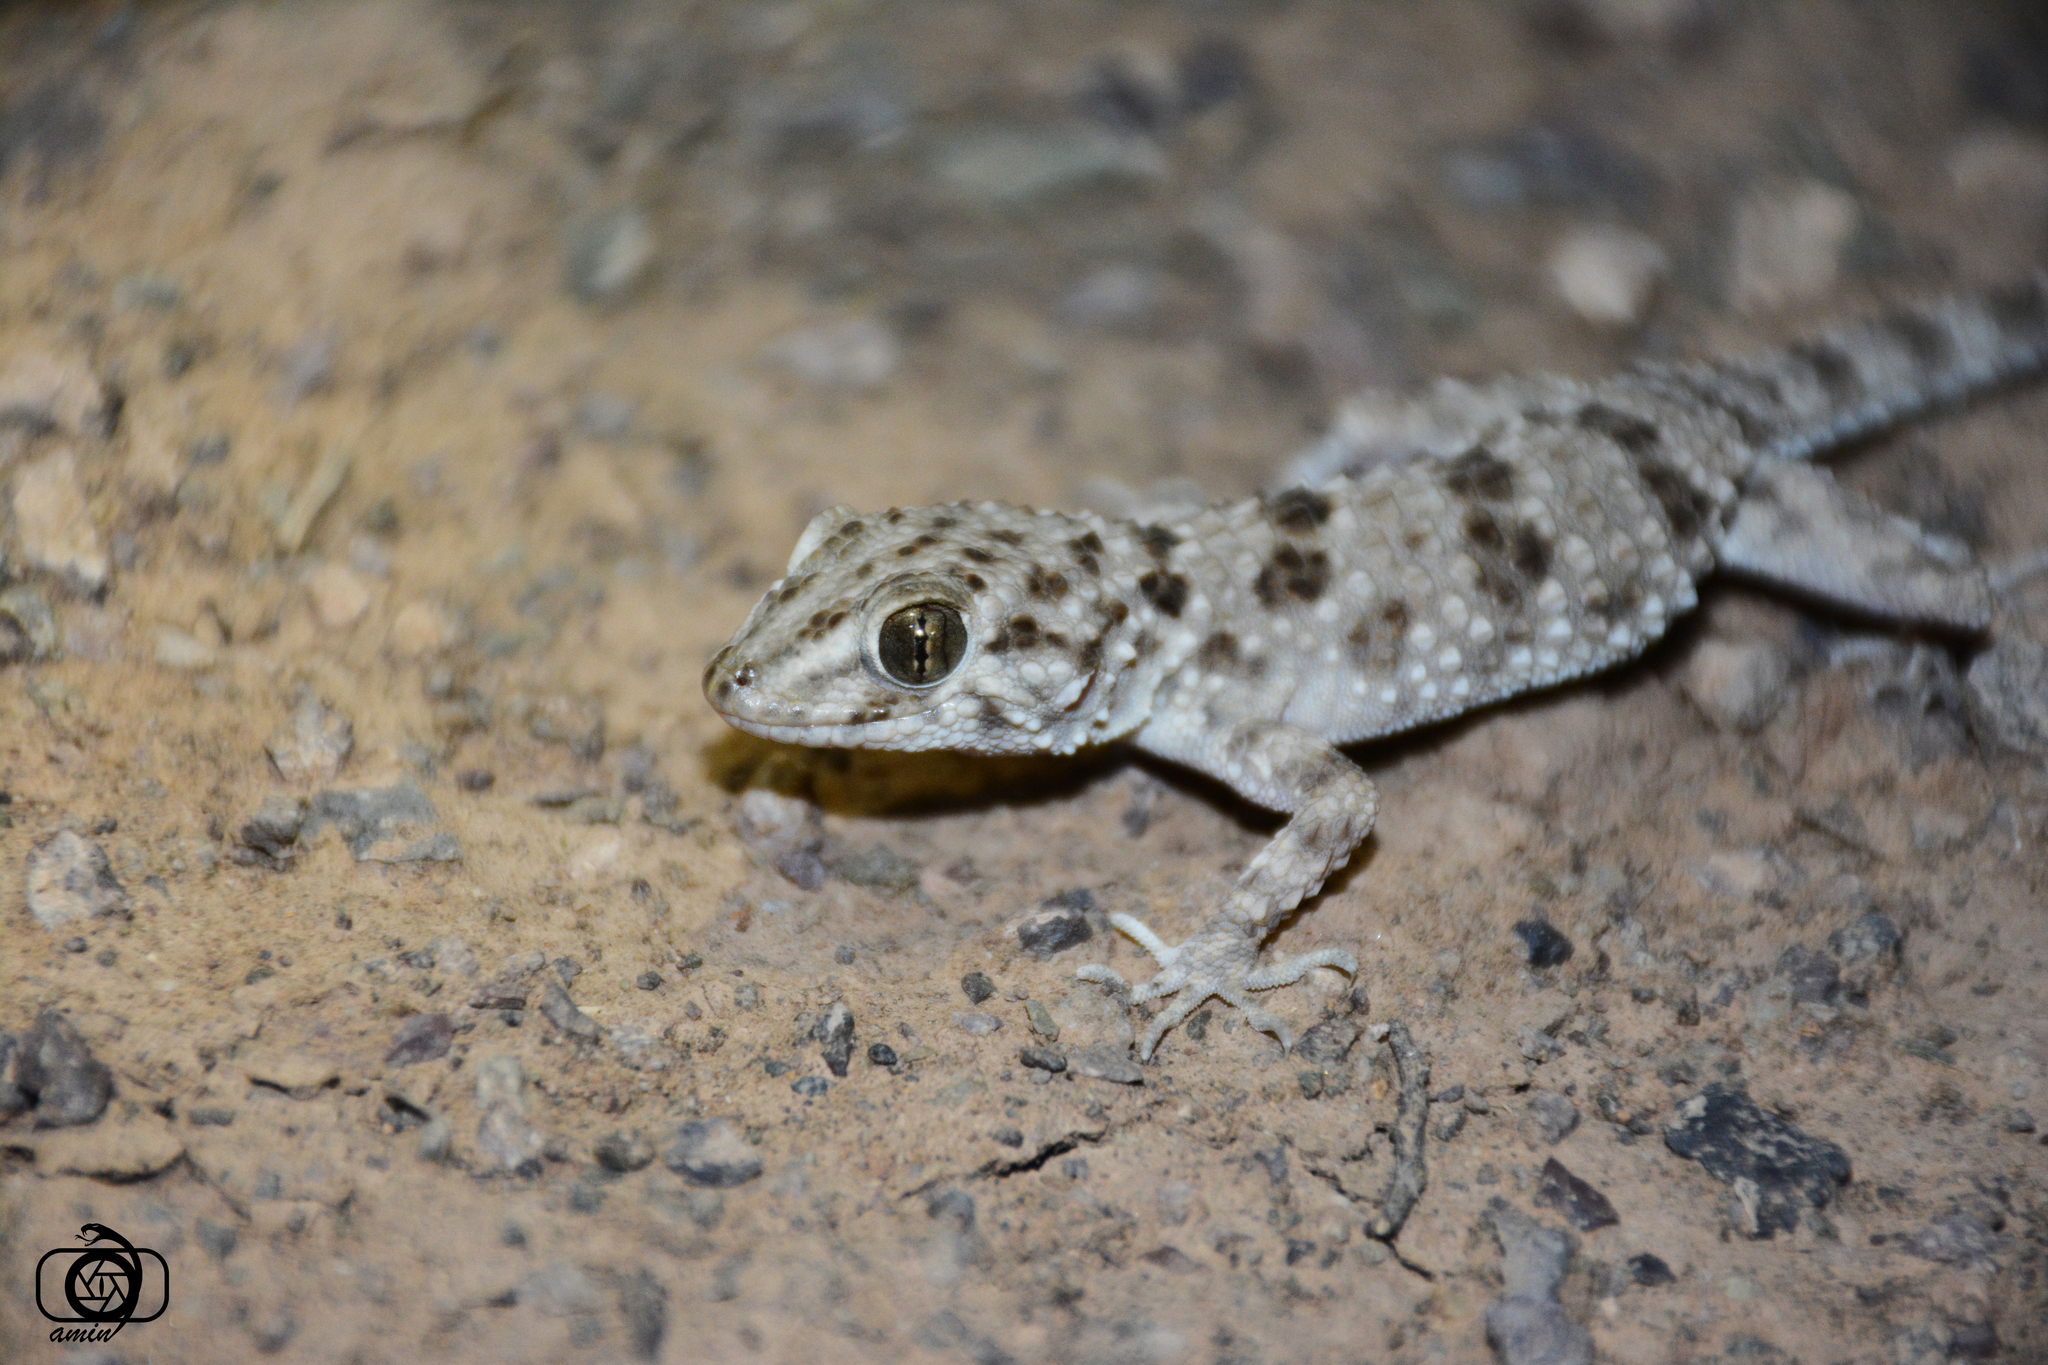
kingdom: Animalia
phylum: Chordata
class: Squamata
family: Gekkonidae
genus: Tenuidactylus
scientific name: Tenuidactylus caspius
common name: Caspian bent-toed gecko
